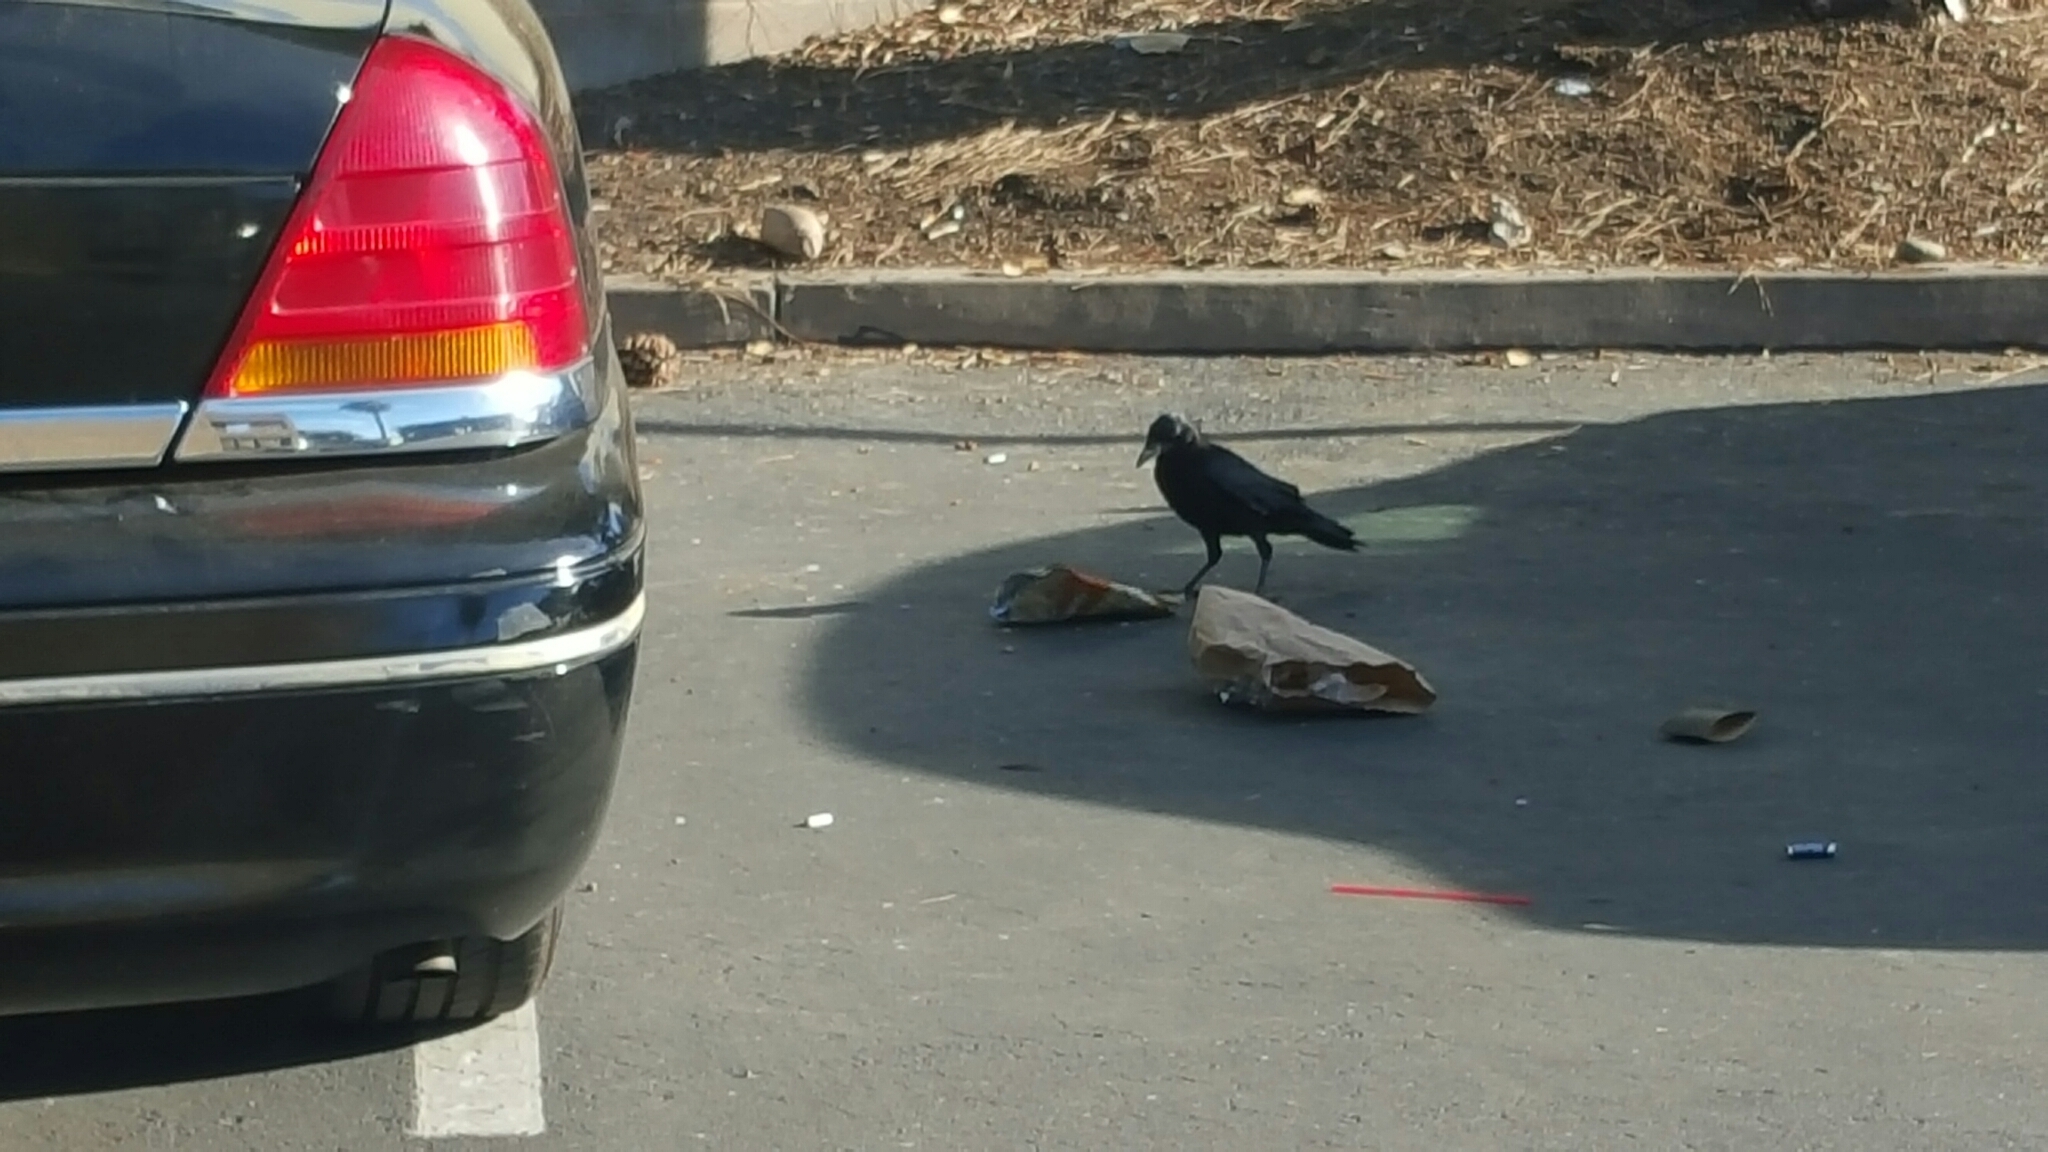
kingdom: Animalia
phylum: Chordata
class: Aves
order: Passeriformes
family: Corvidae
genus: Corvus
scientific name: Corvus brachyrhynchos
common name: American crow
